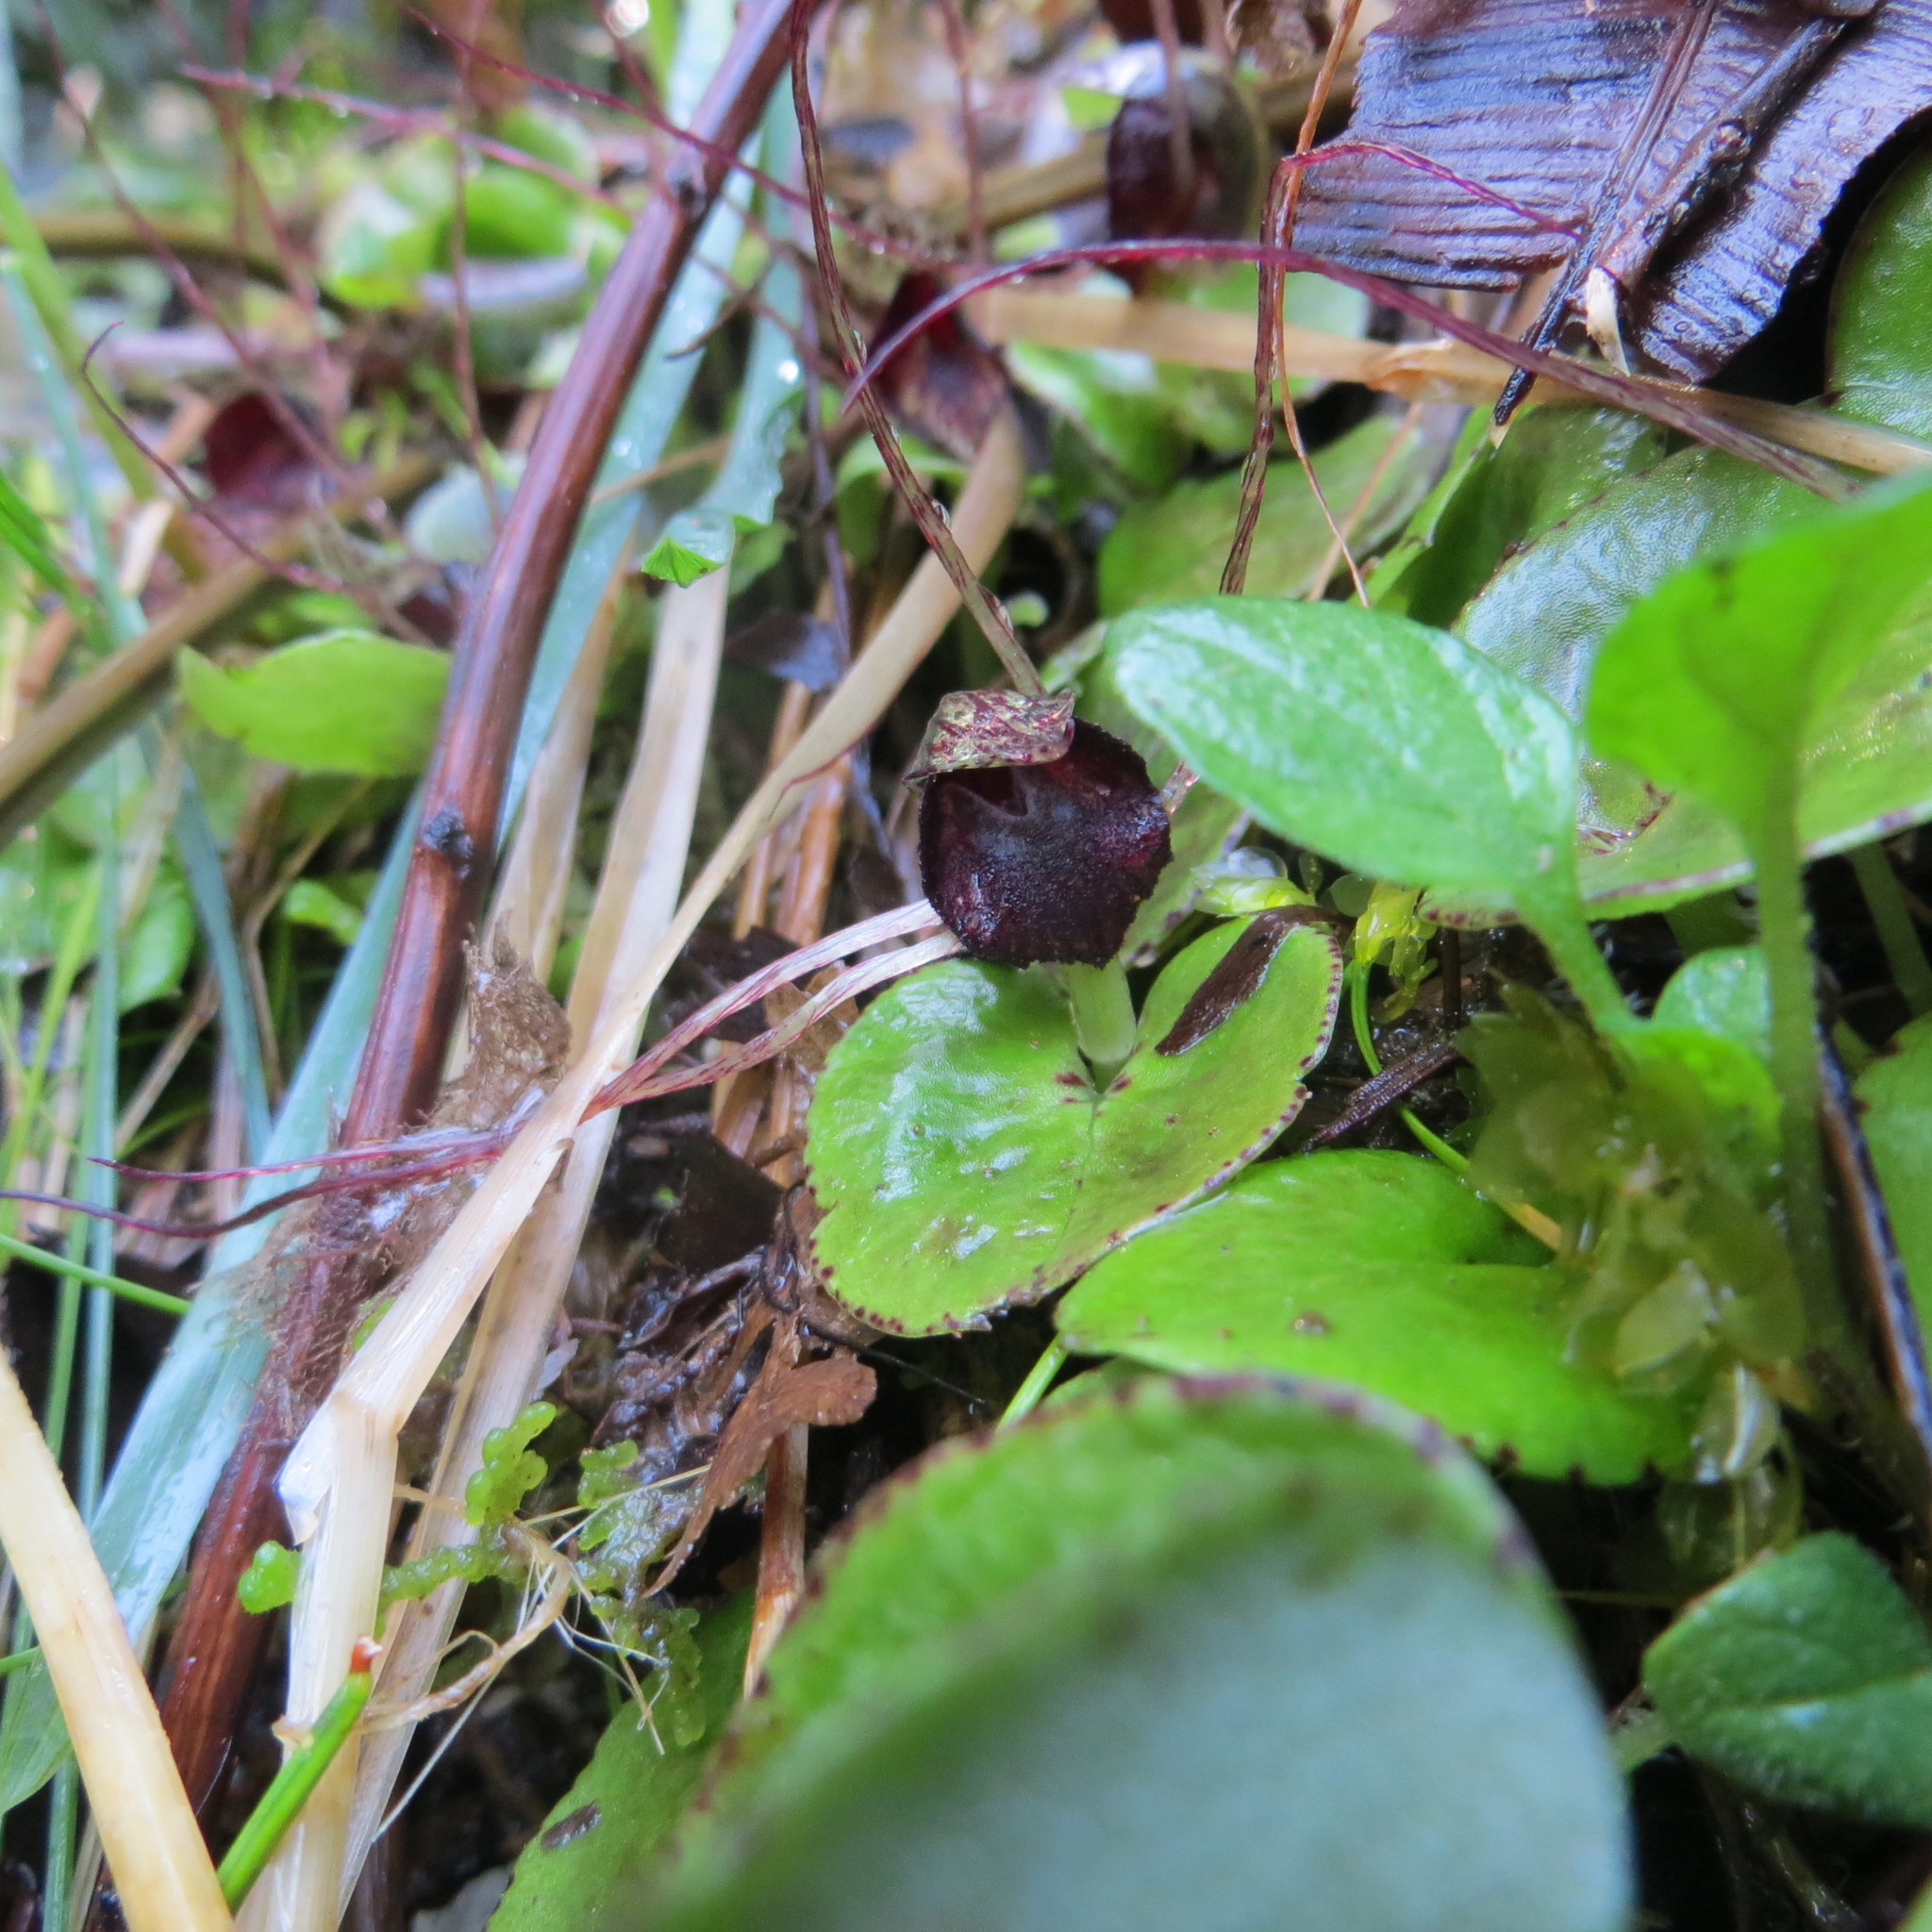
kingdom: Plantae
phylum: Tracheophyta
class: Liliopsida
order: Asparagales
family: Orchidaceae
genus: Corybas
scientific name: Corybas iridescens
